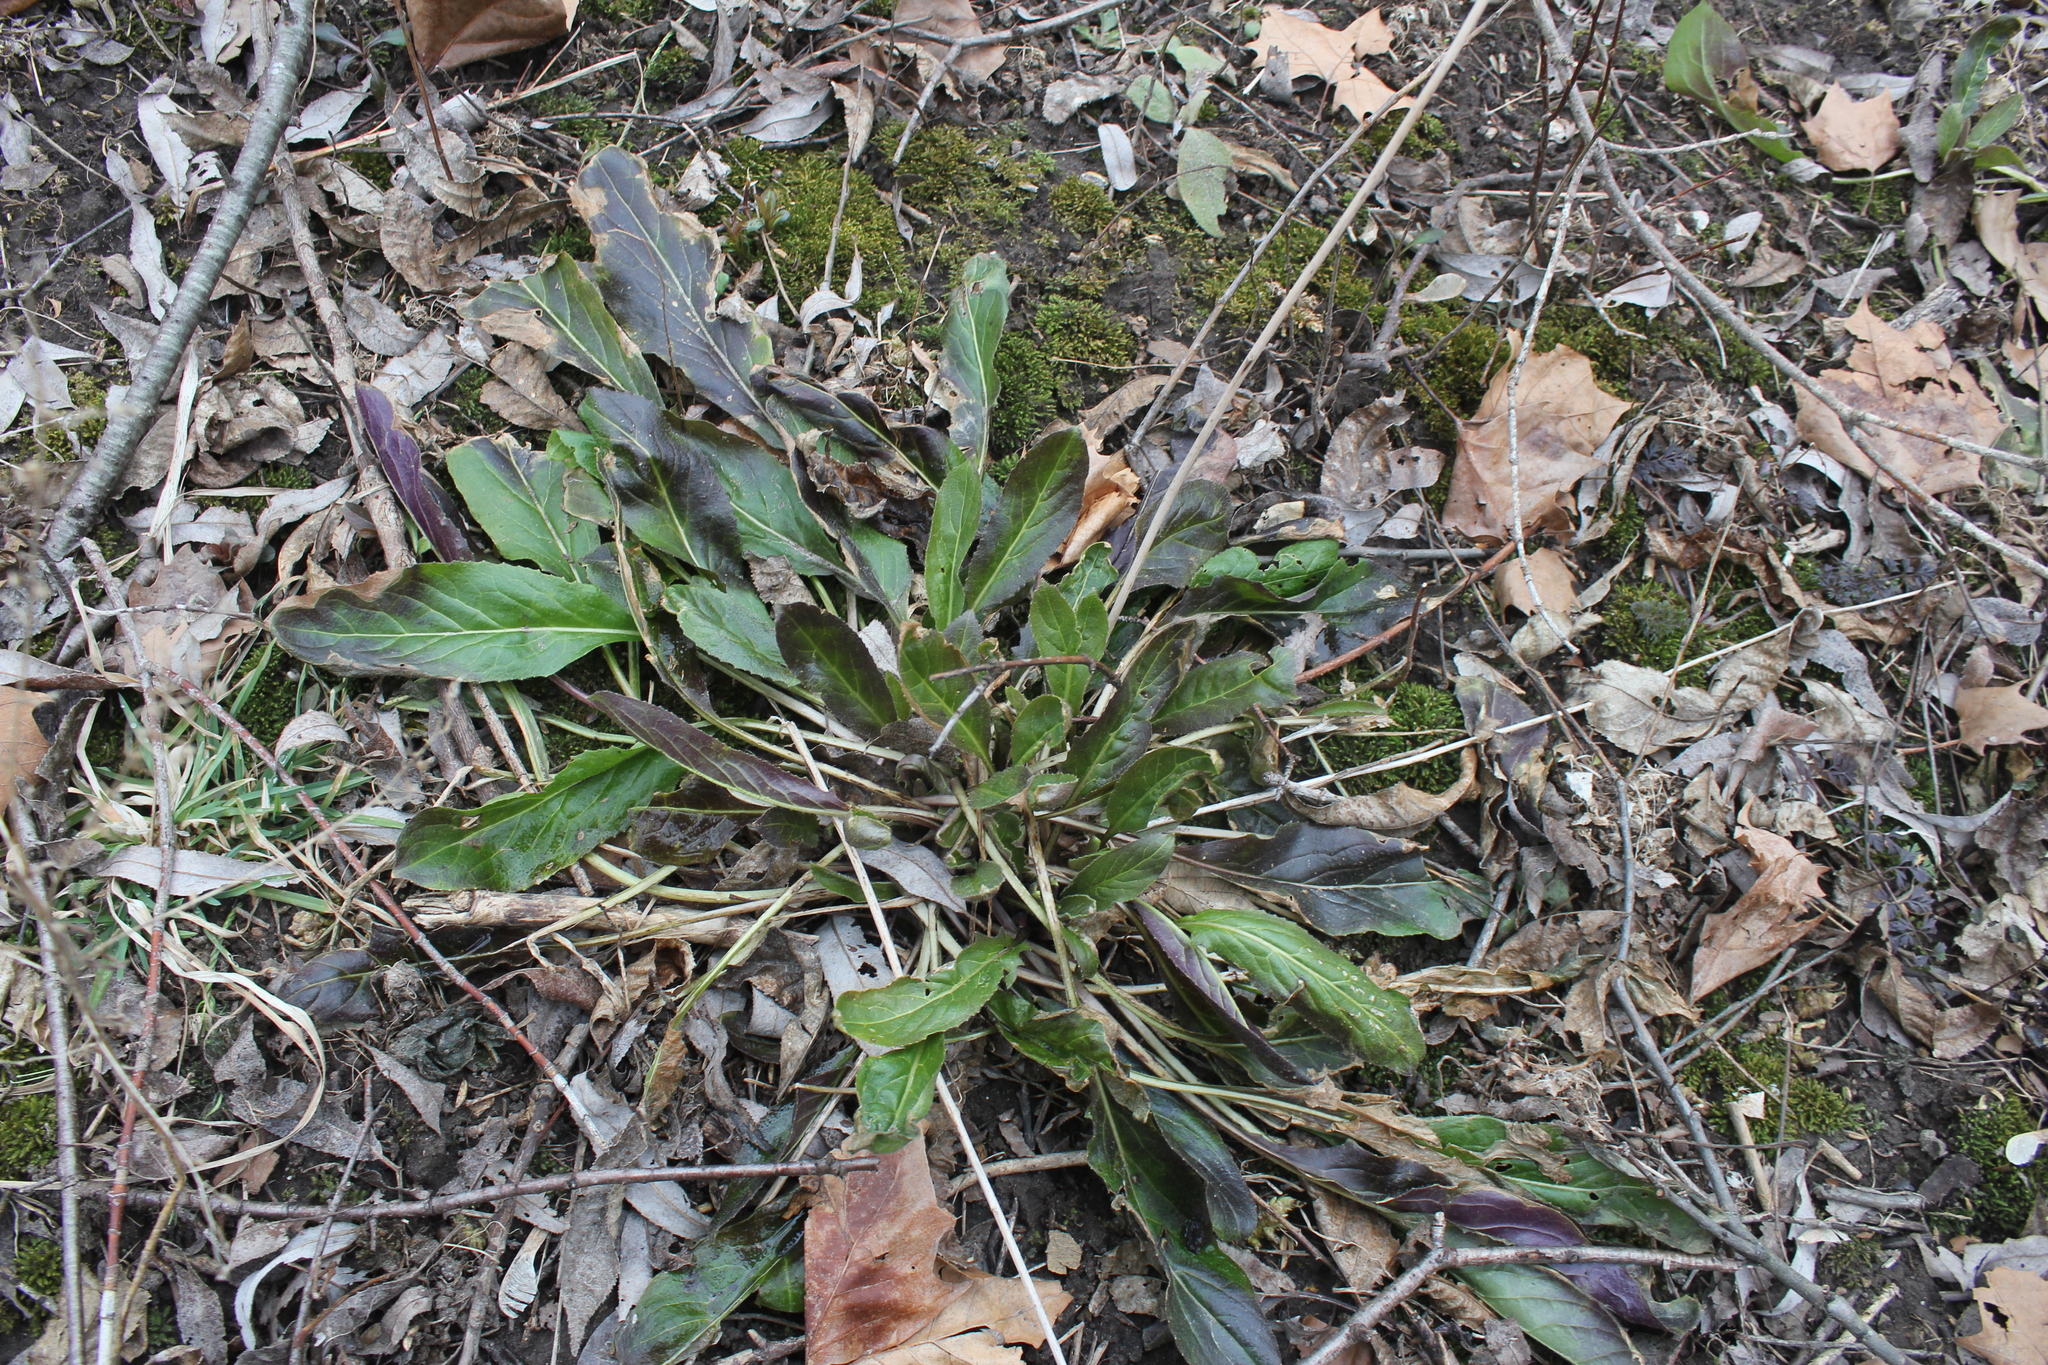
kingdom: Plantae
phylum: Tracheophyta
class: Magnoliopsida
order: Brassicales
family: Brassicaceae
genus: Hesperis
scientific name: Hesperis matronalis
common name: Dame's-violet
